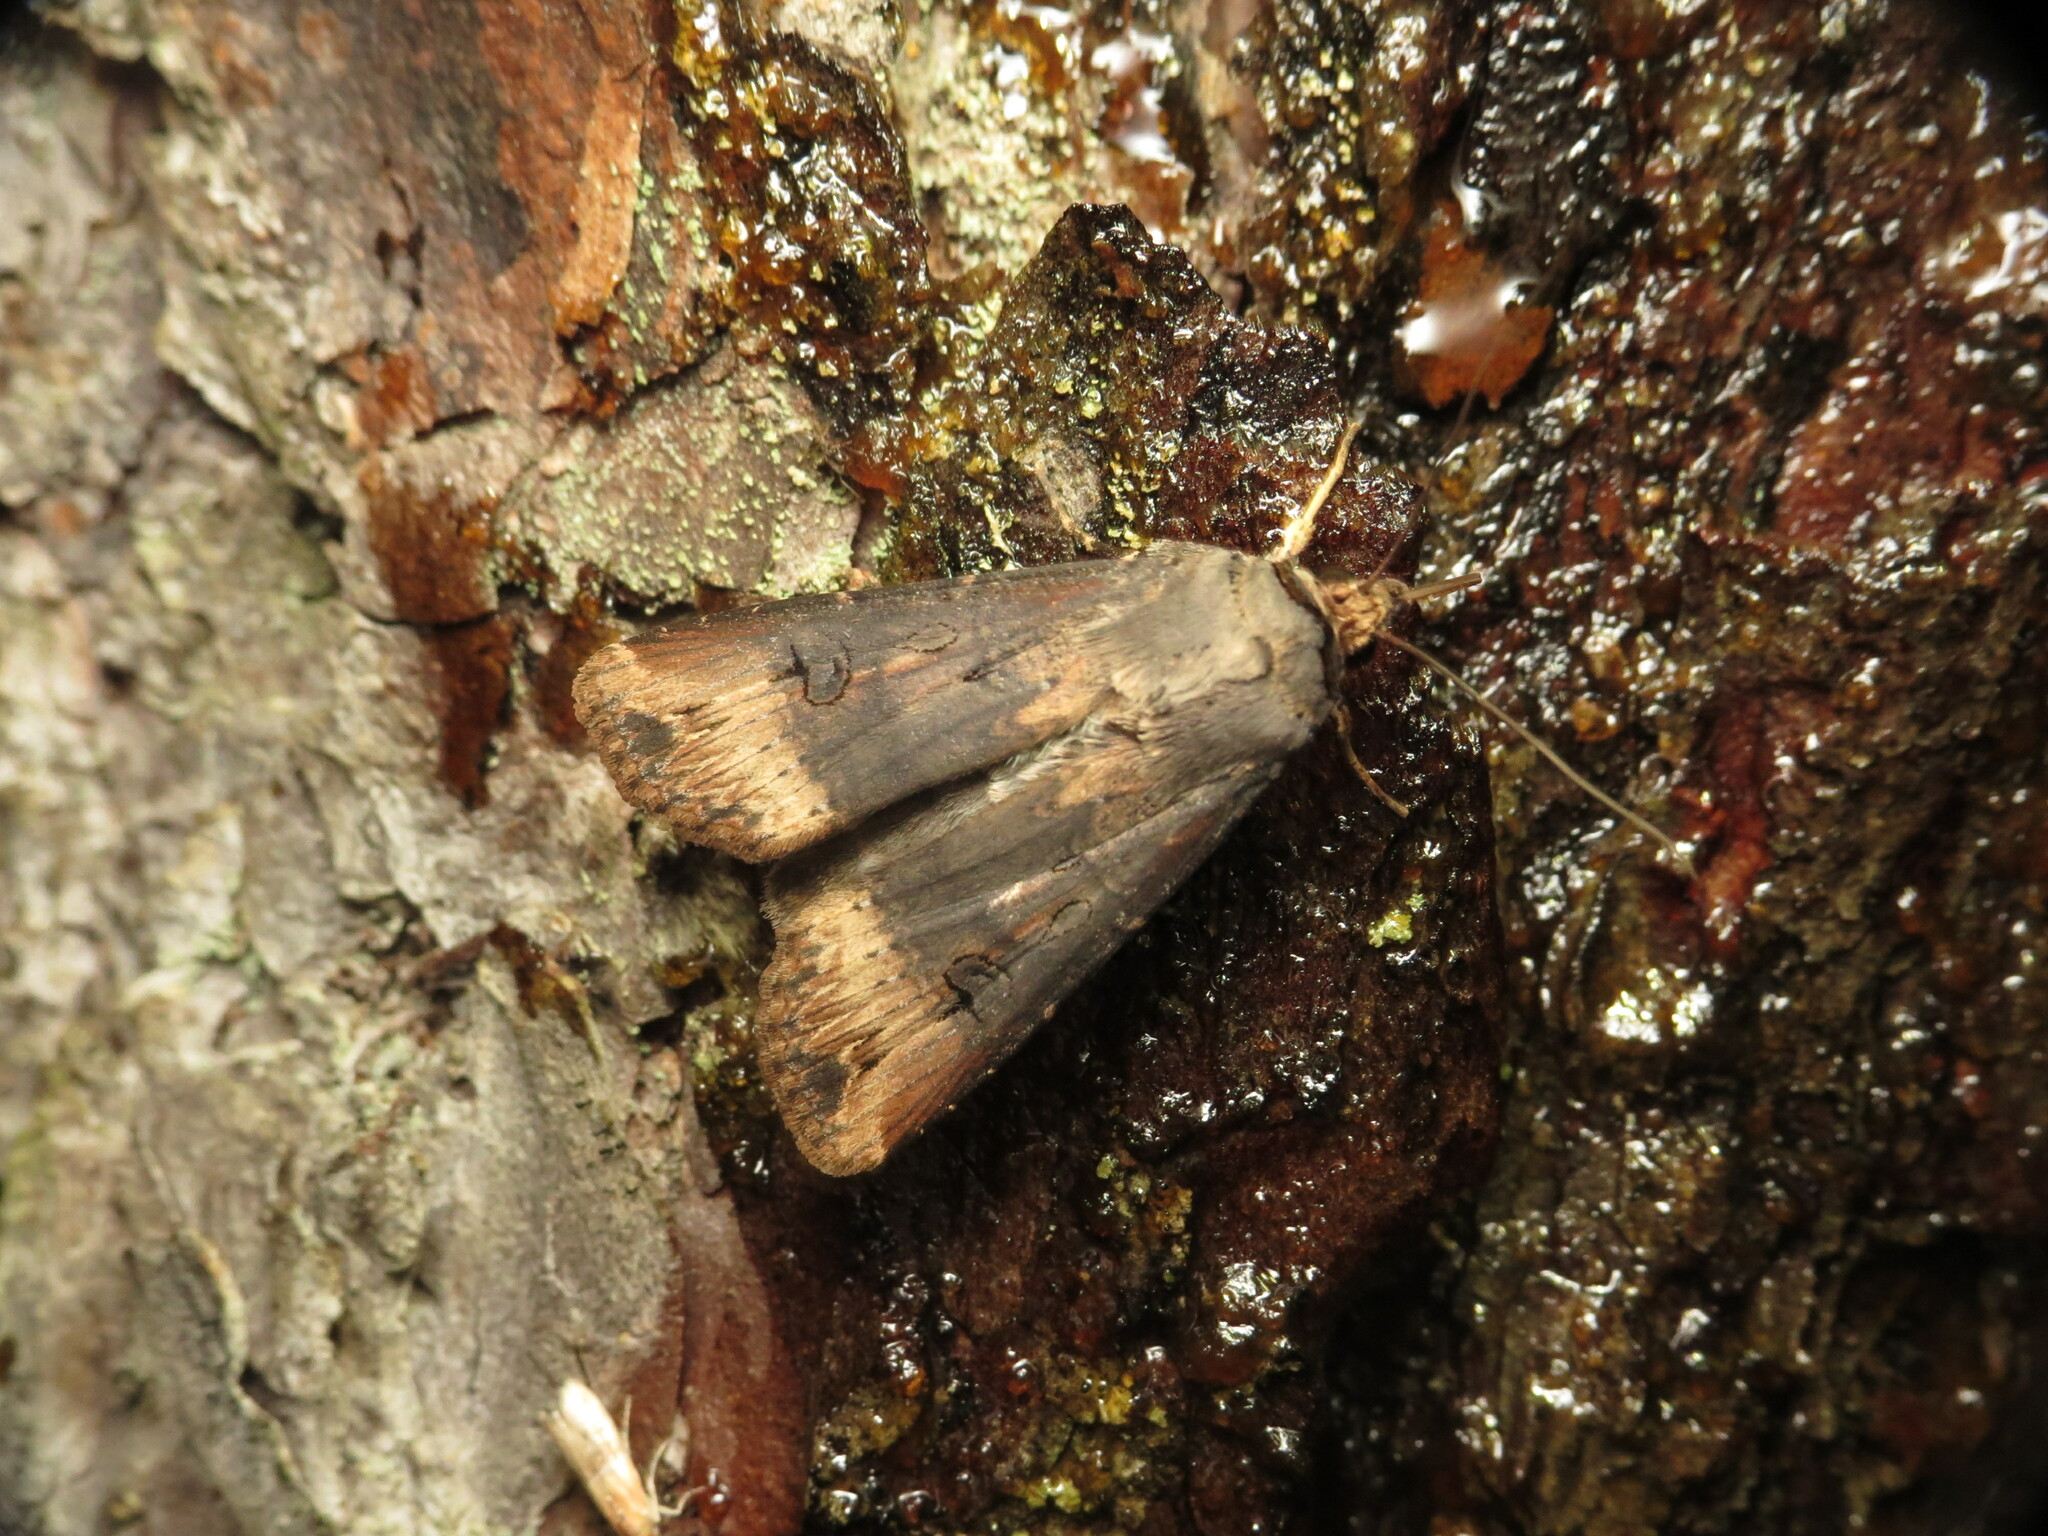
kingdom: Animalia
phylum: Arthropoda
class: Insecta
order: Lepidoptera
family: Noctuidae
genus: Agrotis
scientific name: Agrotis ipsilon
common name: Dark sword-grass
